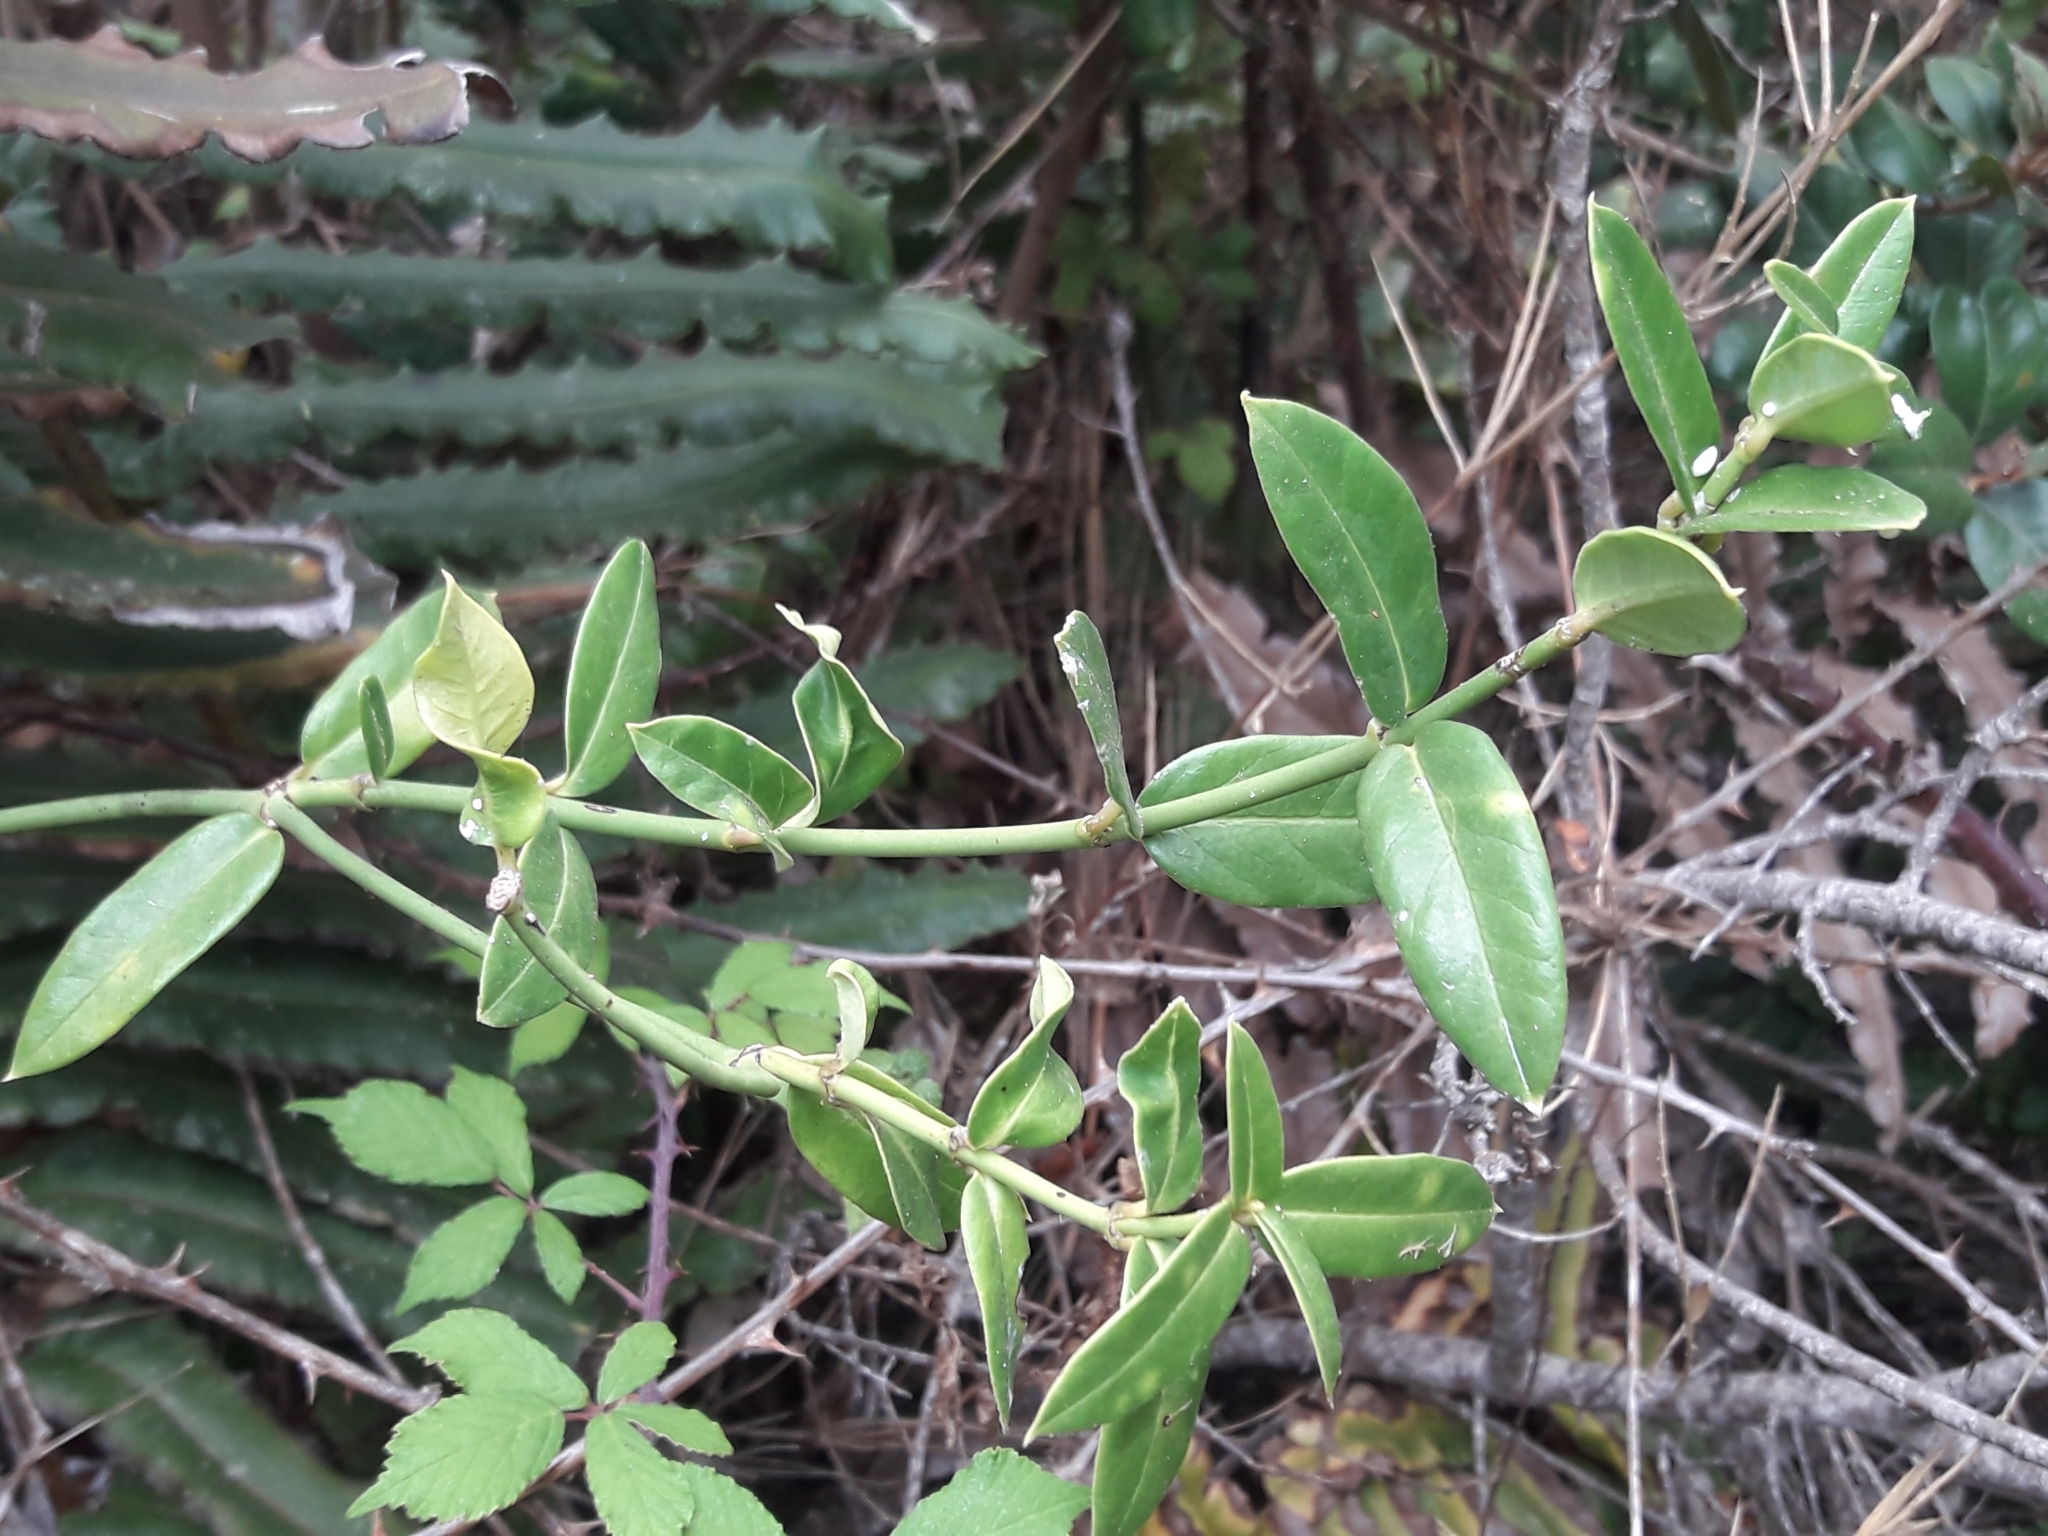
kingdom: Plantae
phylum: Tracheophyta
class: Magnoliopsida
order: Gentianales
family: Apocynaceae
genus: Diplolepis
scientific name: Diplolepis menziesii
